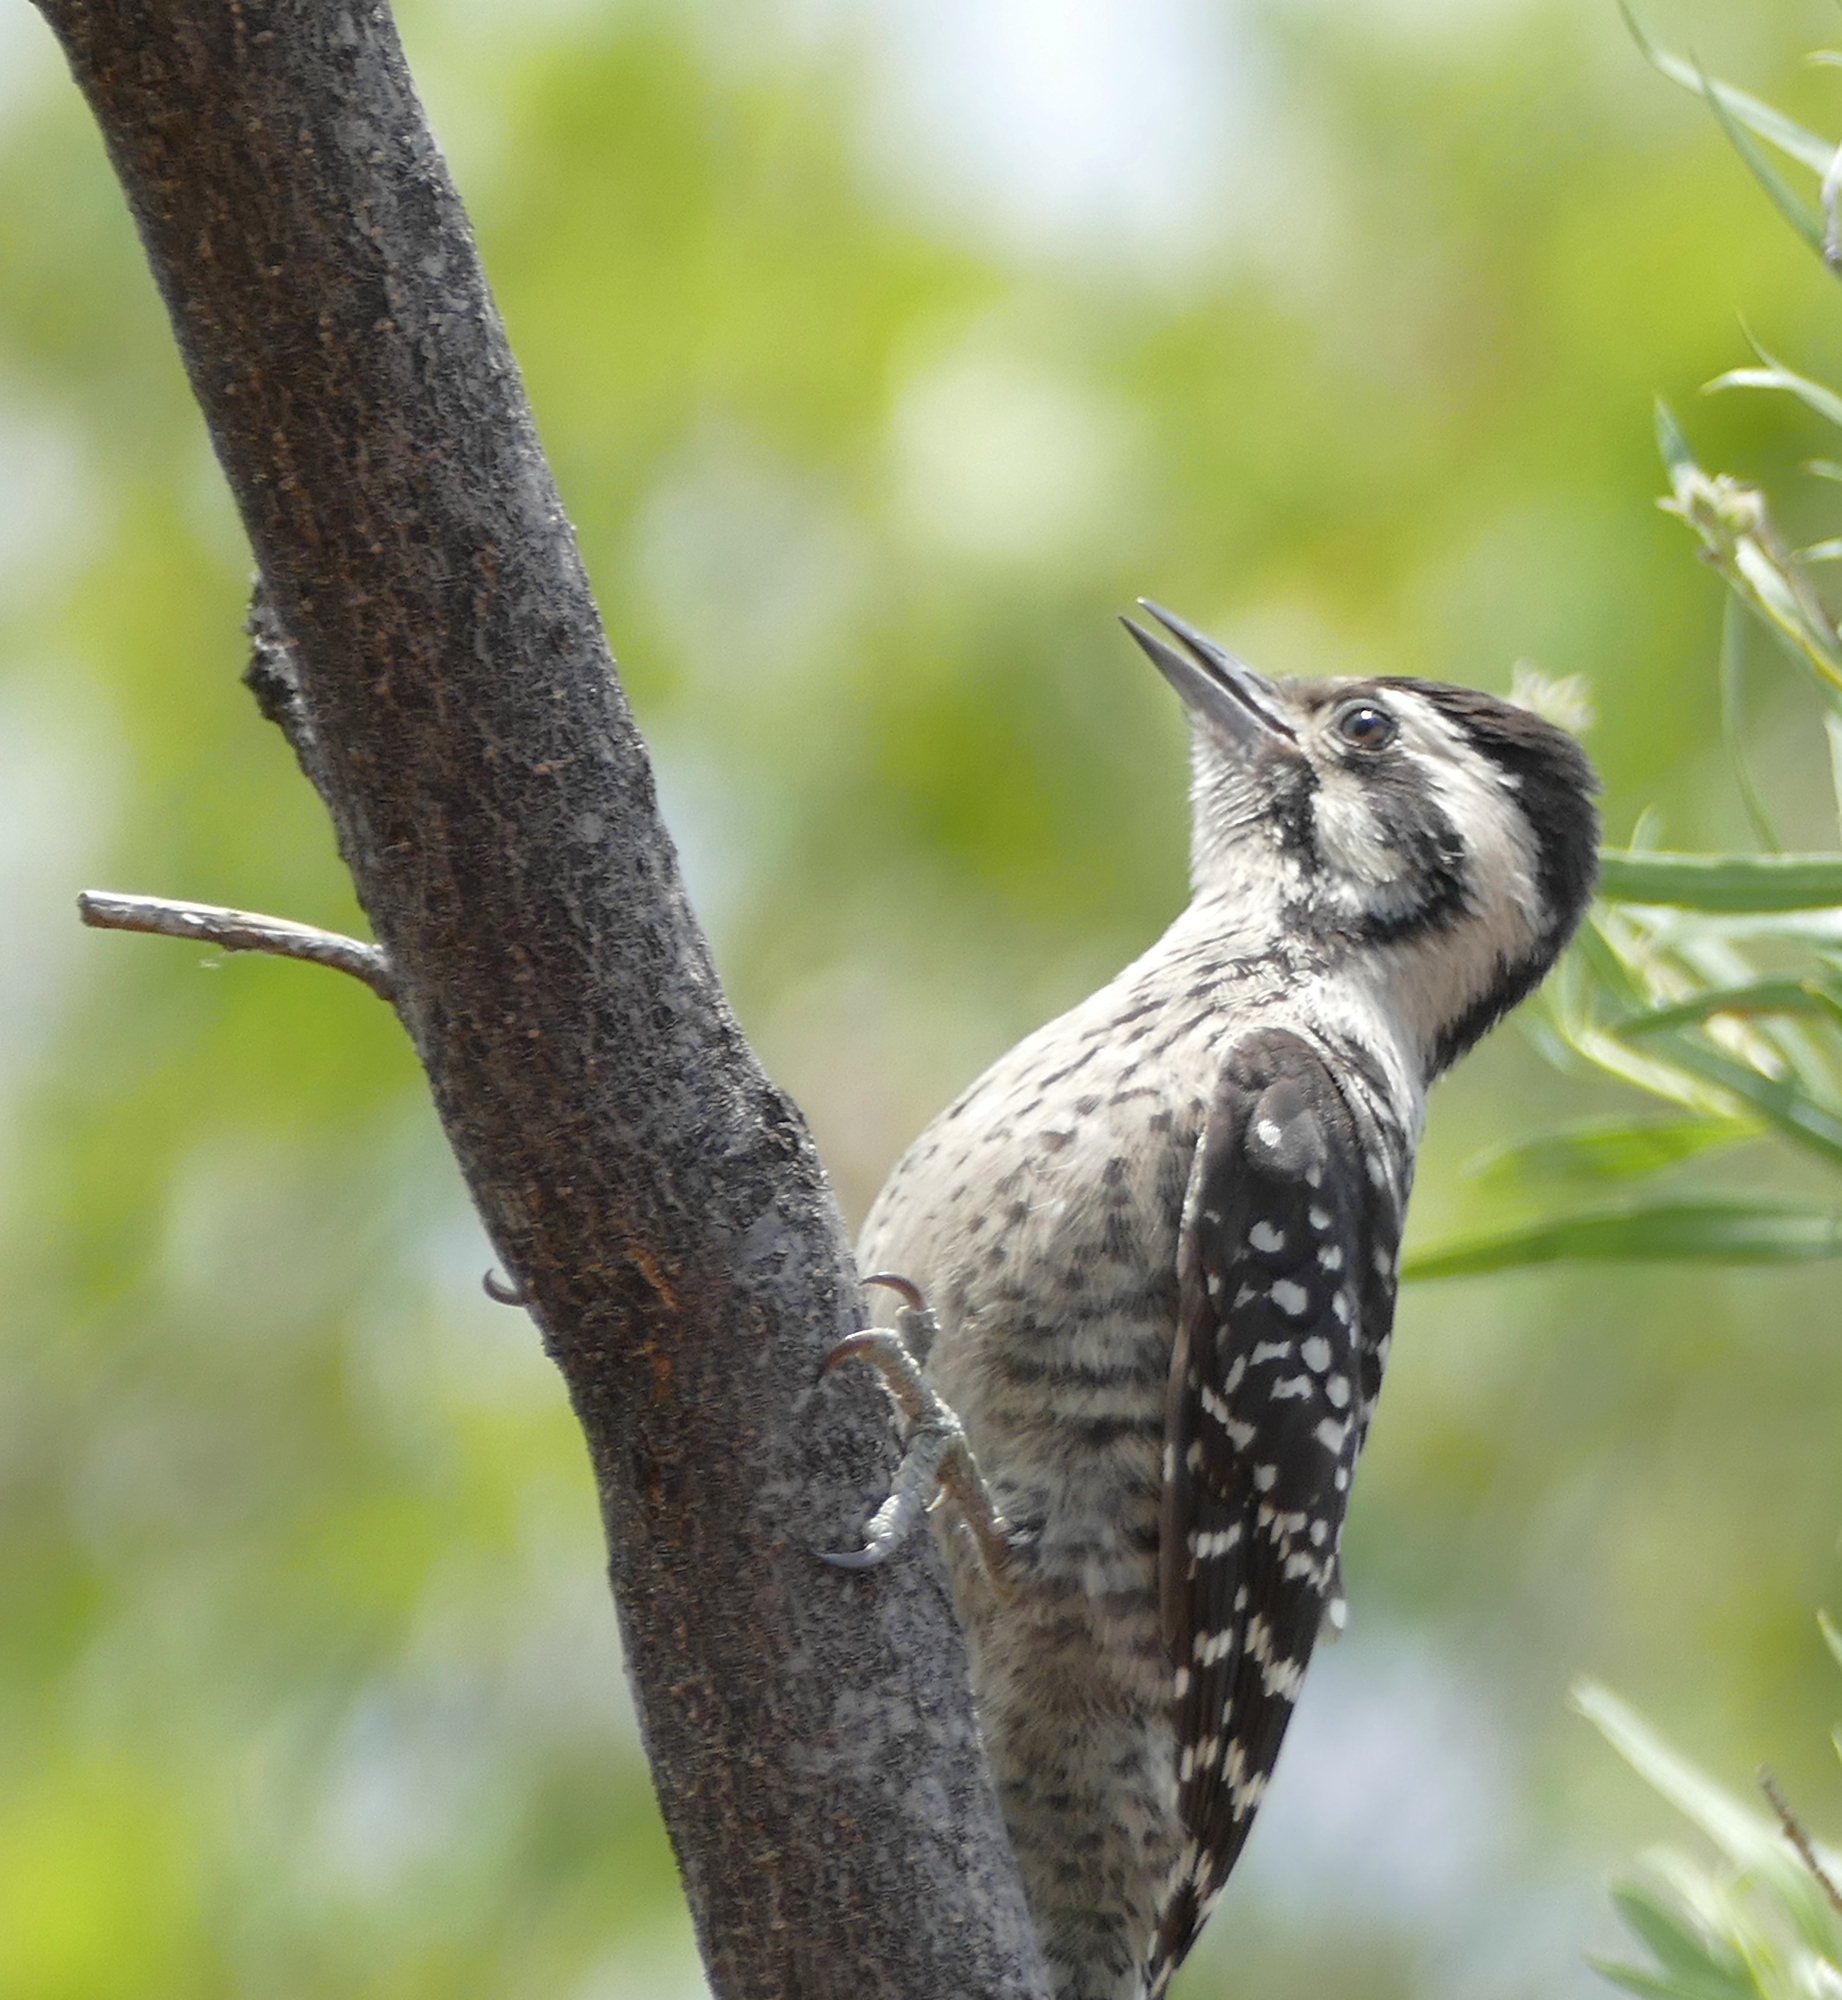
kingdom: Animalia
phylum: Chordata
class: Aves
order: Piciformes
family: Picidae
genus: Dryobates
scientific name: Dryobates scalaris
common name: Ladder-backed woodpecker
